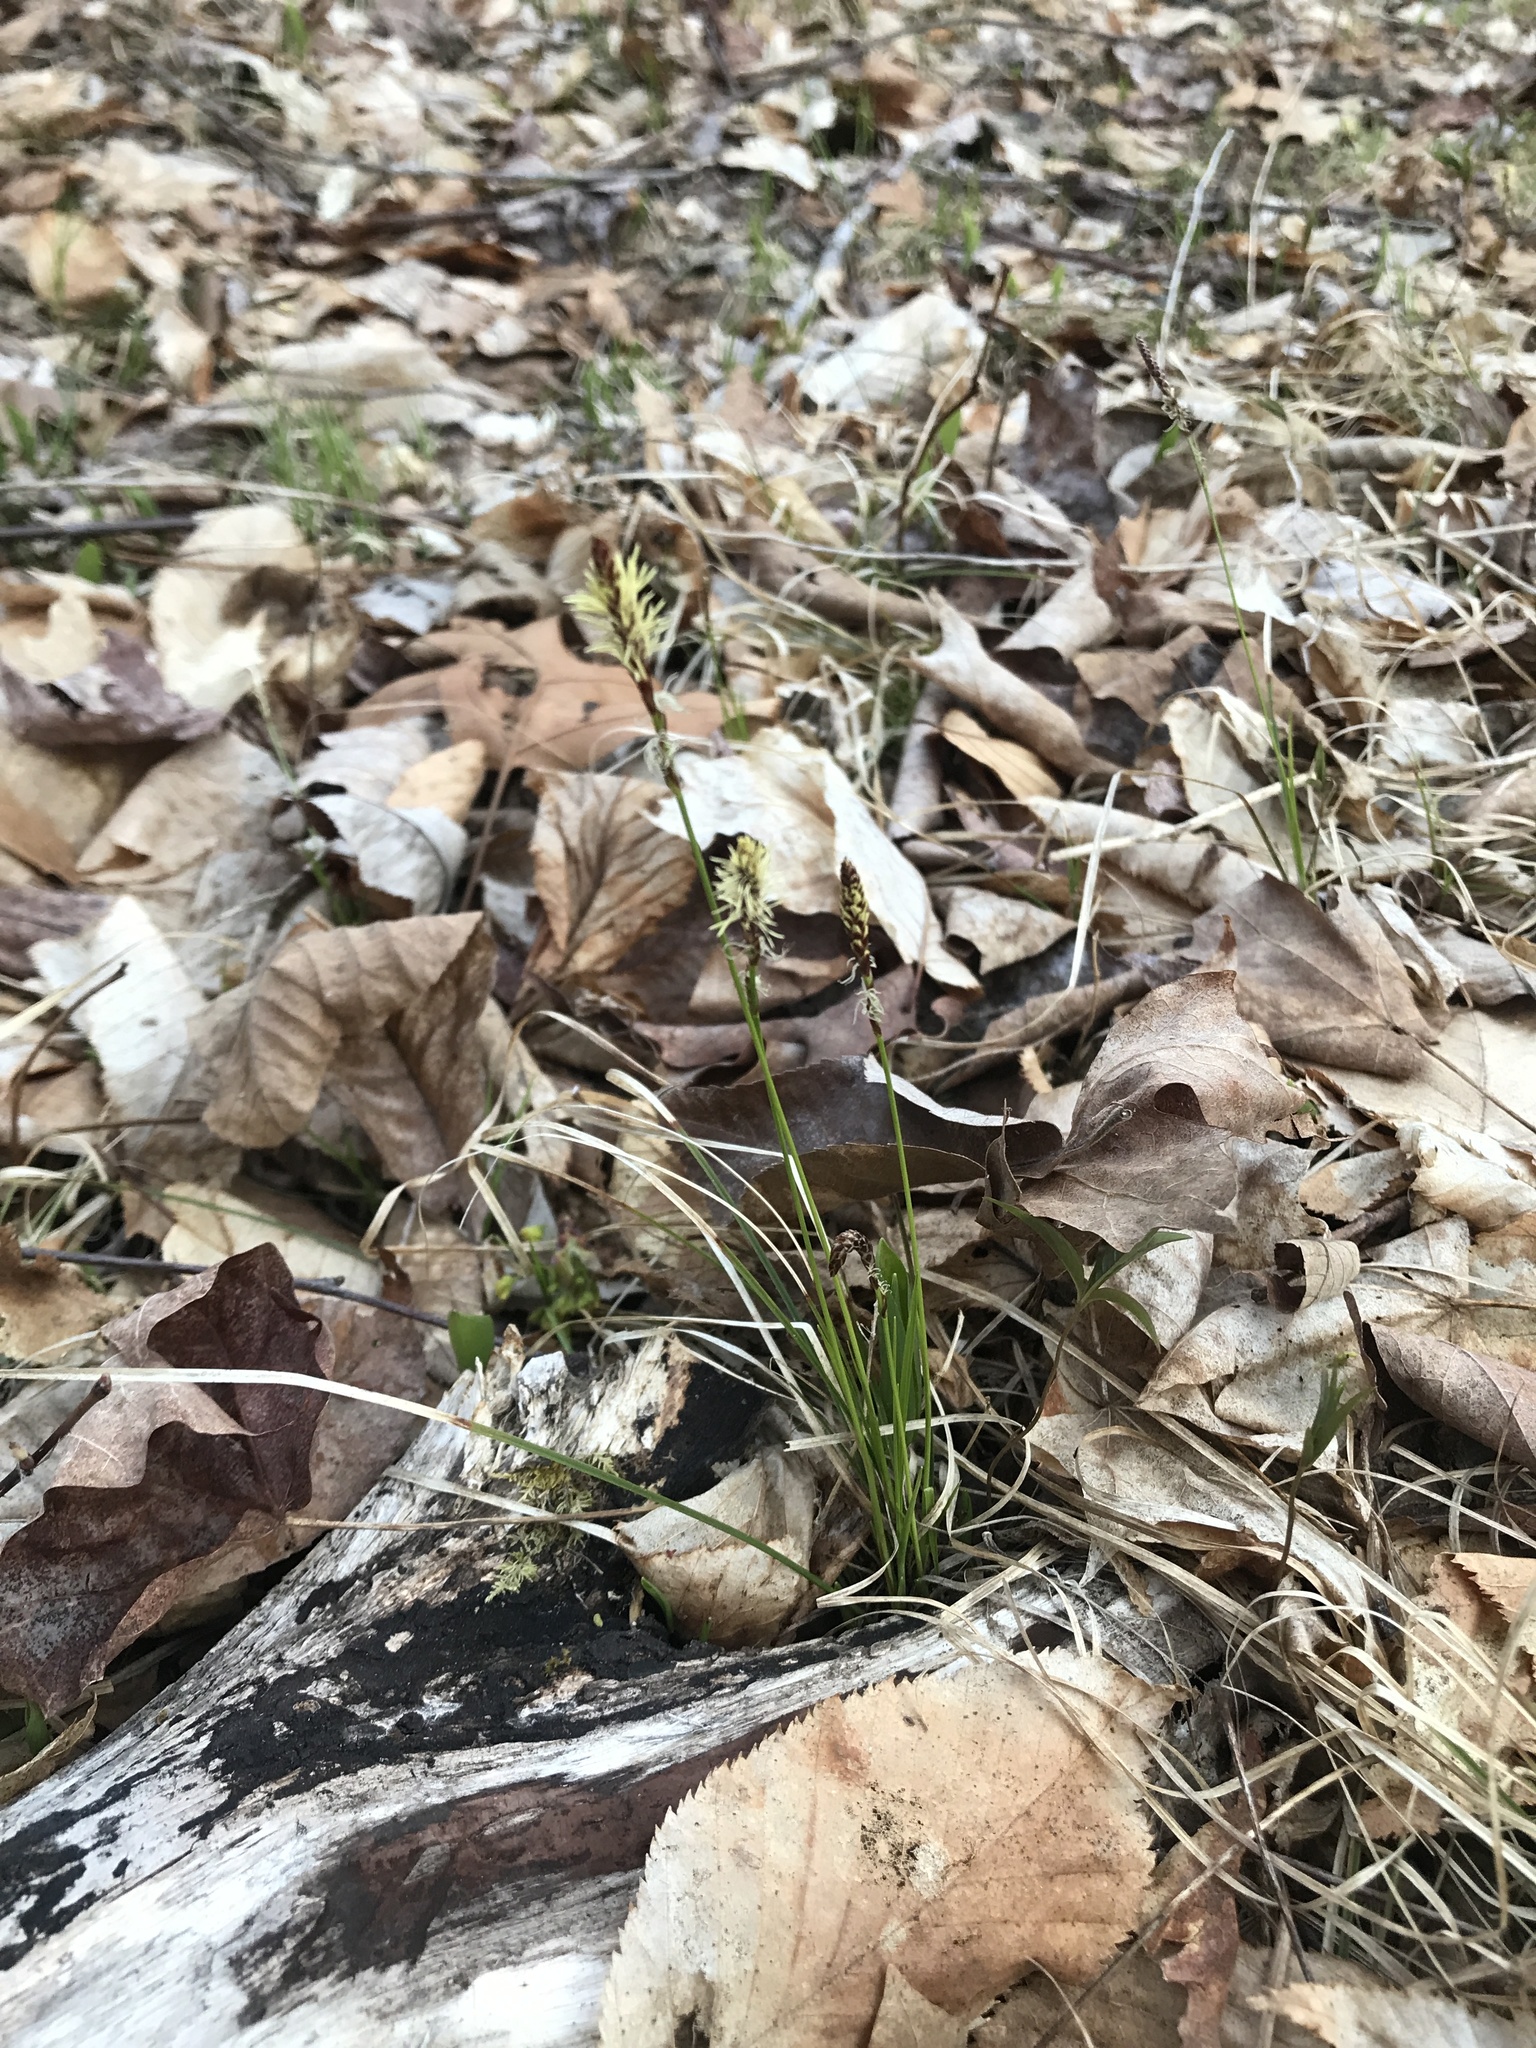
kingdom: Plantae
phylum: Tracheophyta
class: Liliopsida
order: Poales
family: Cyperaceae
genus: Carex
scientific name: Carex pensylvanica
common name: Common oak sedge
